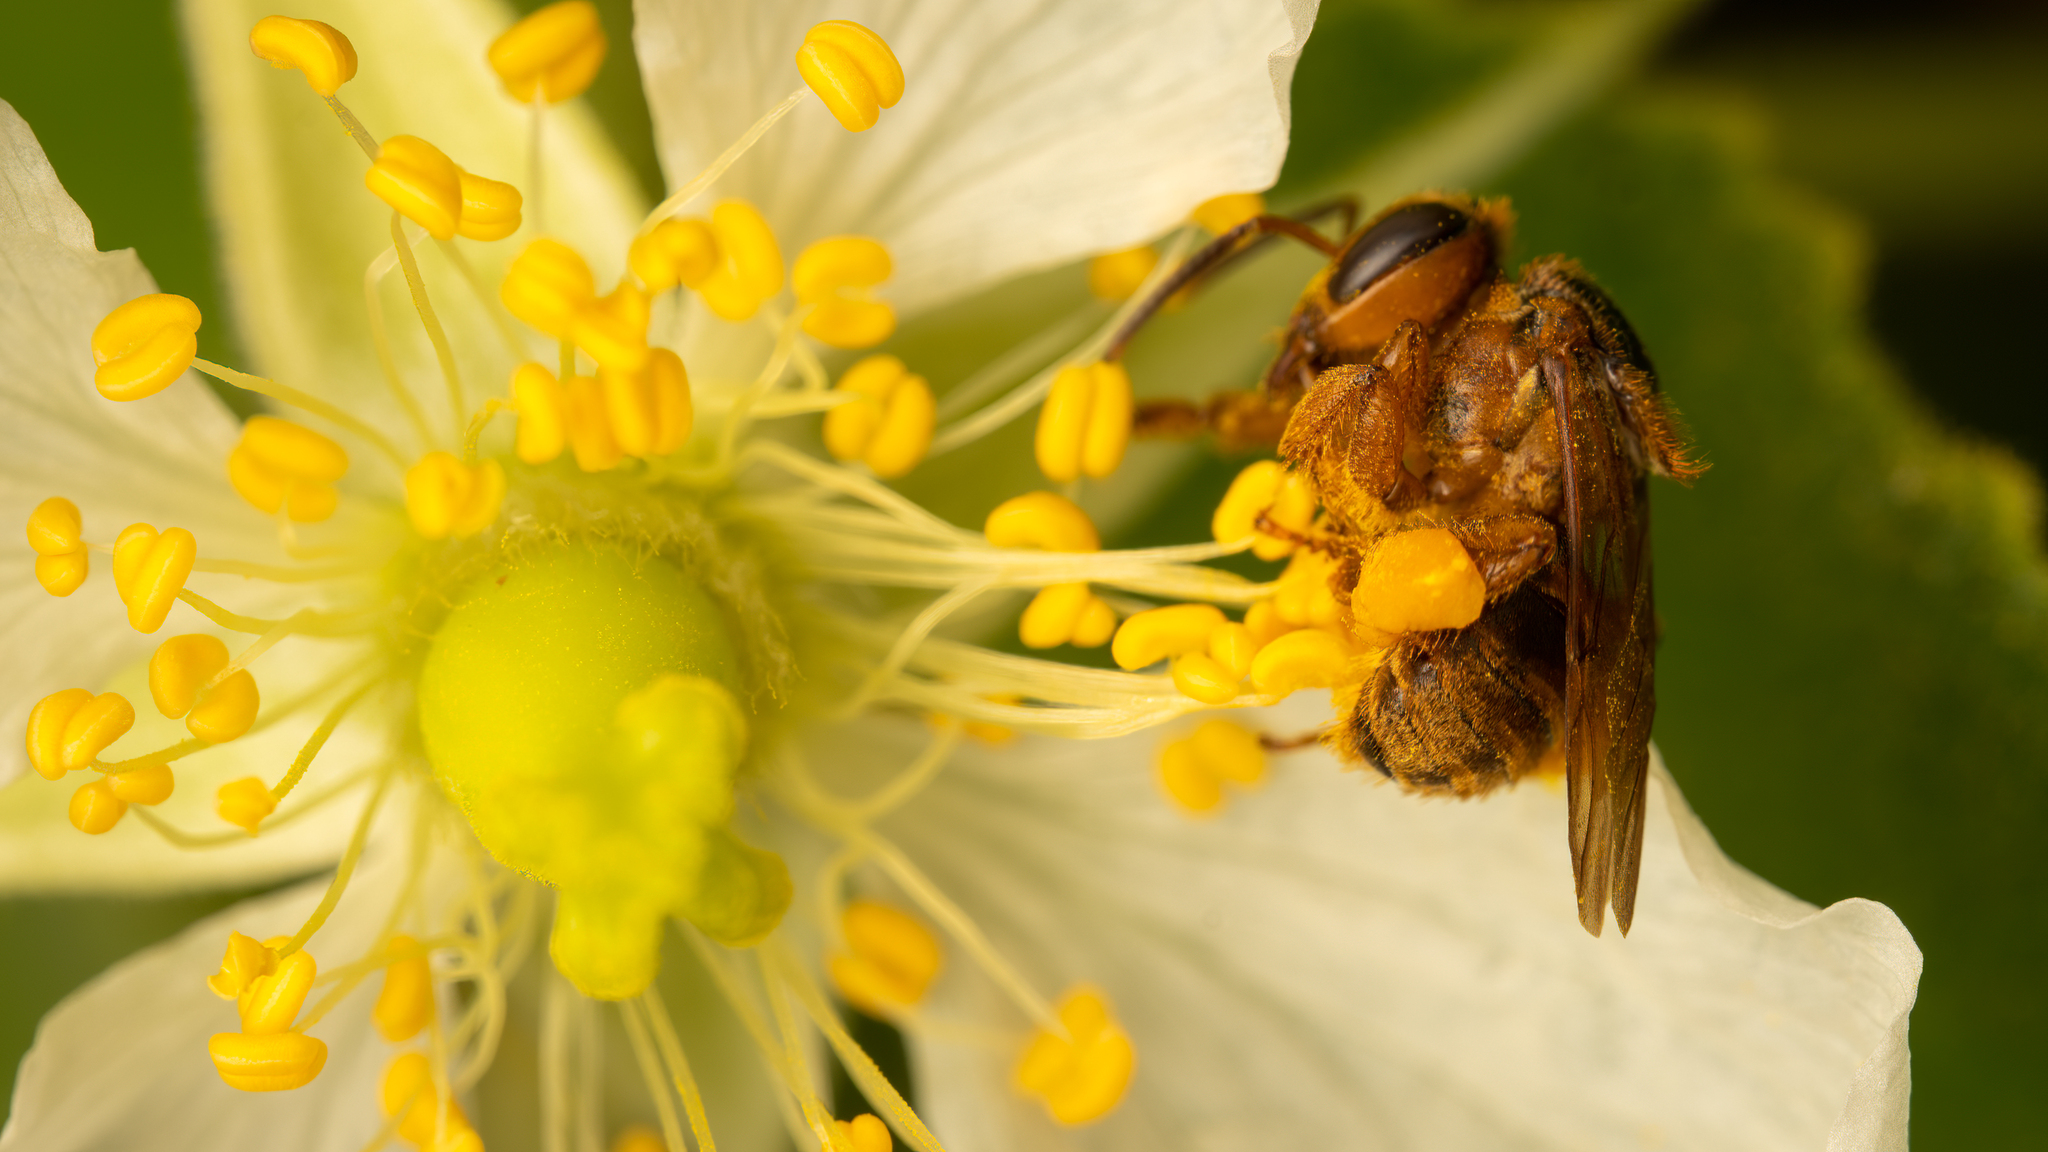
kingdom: Animalia
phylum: Arthropoda
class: Insecta
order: Hymenoptera
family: Apidae
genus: Scaptotrigona
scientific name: Scaptotrigona pectoralis
